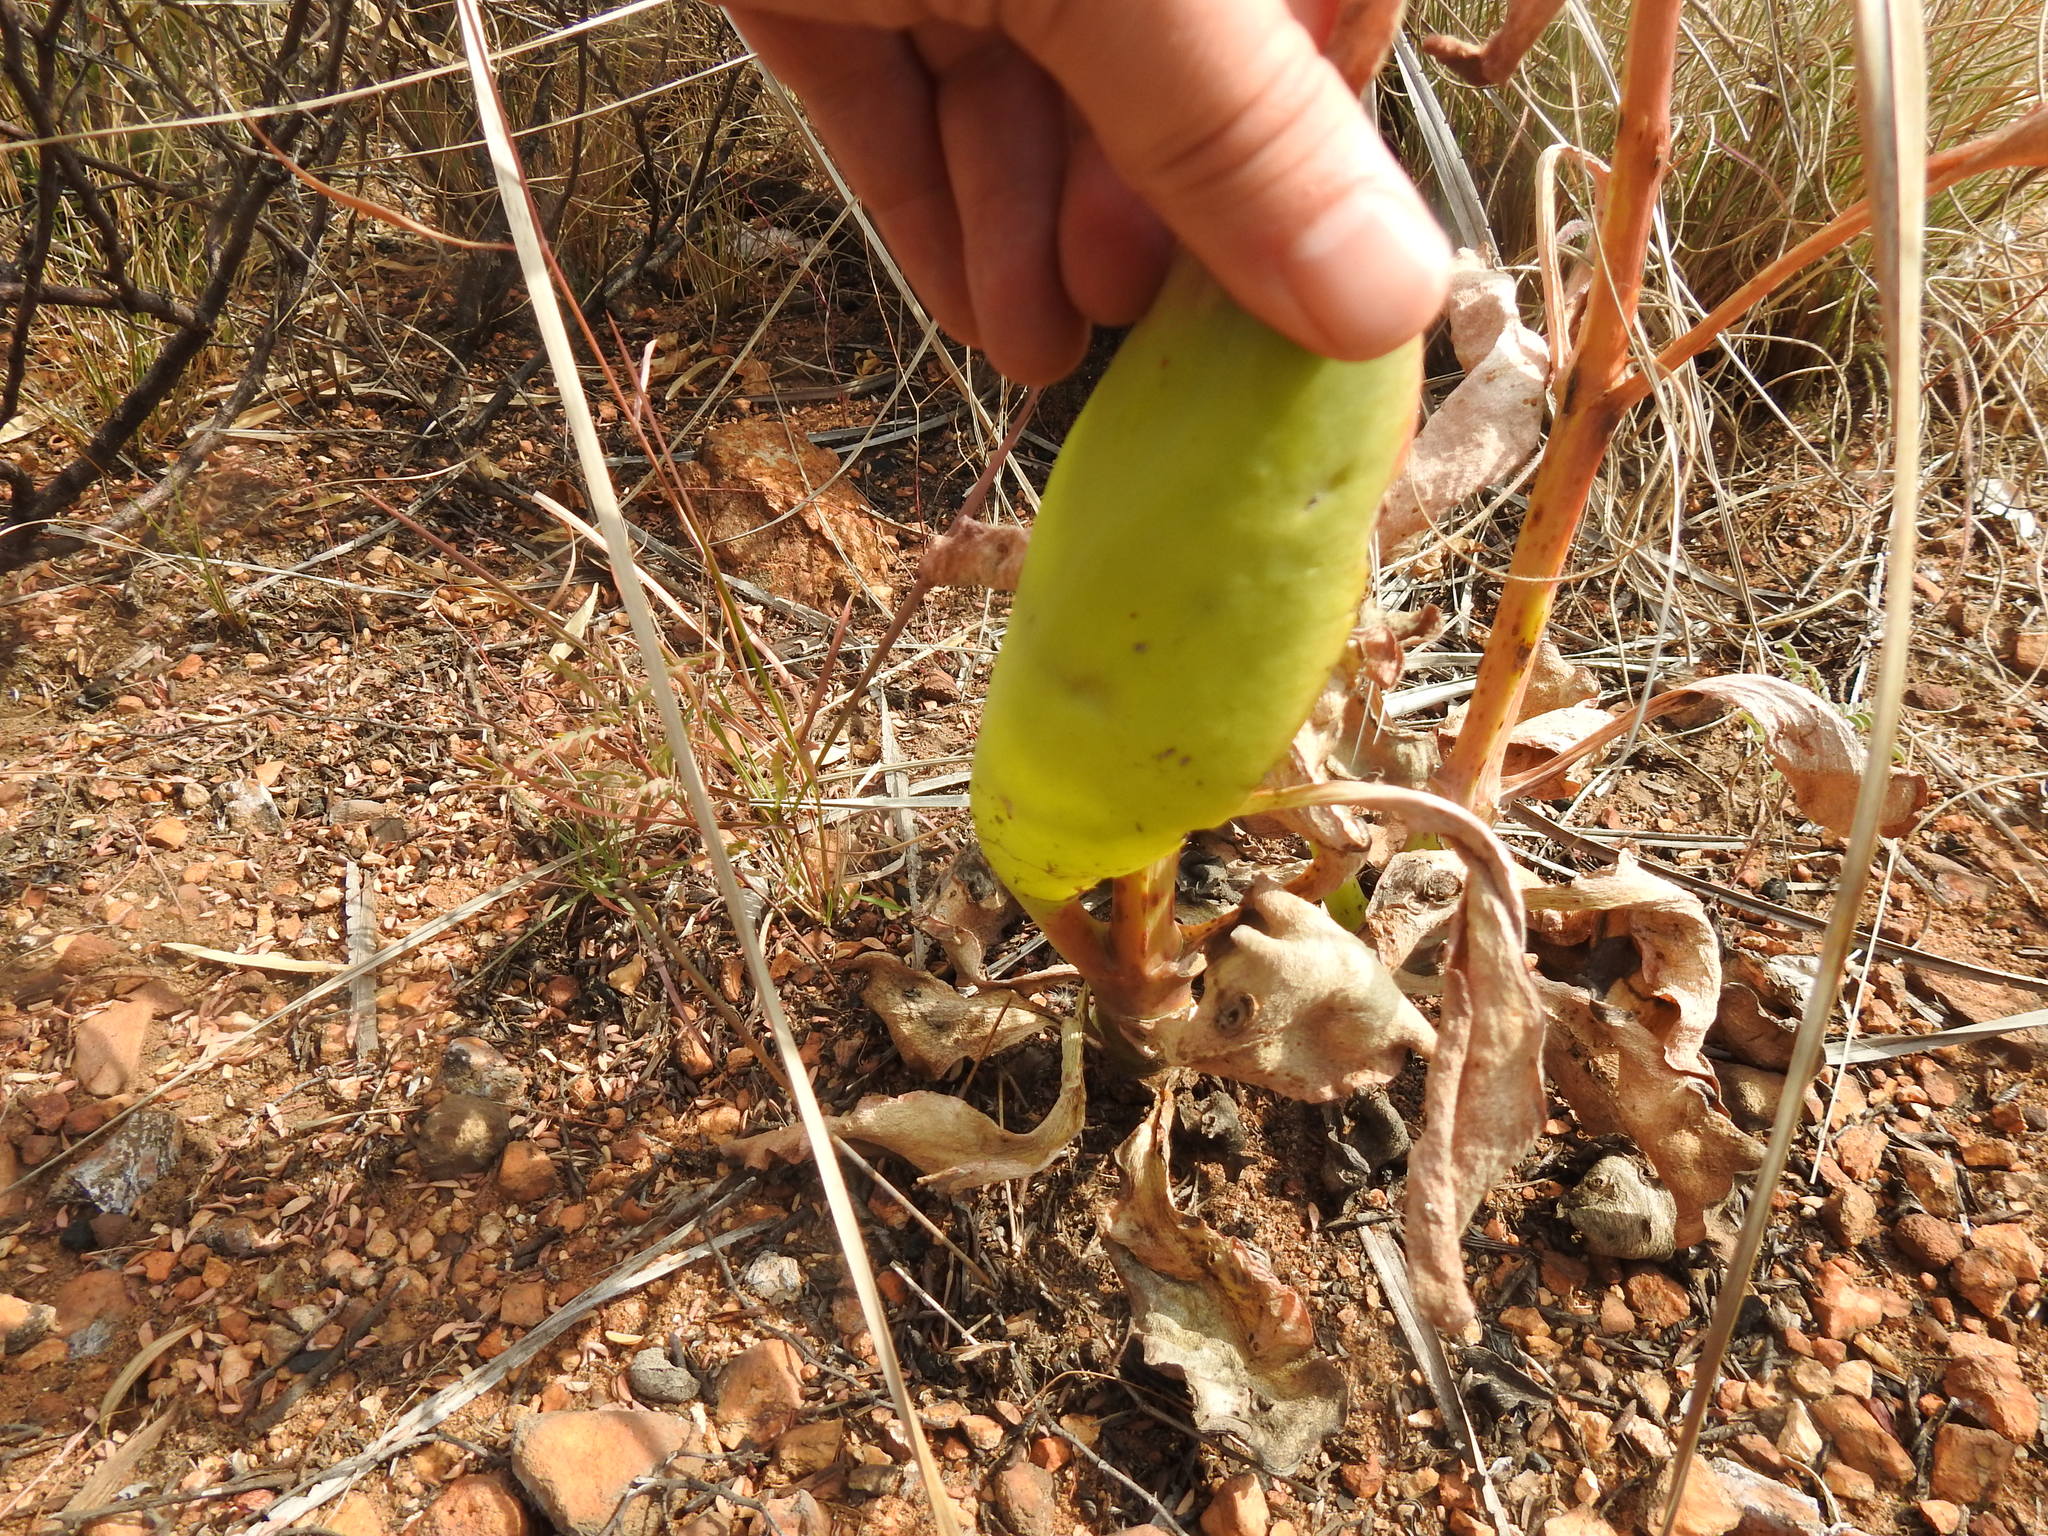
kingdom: Plantae
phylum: Tracheophyta
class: Magnoliopsida
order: Saxifragales
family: Crassulaceae
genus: Kalanchoe
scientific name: Kalanchoe paniculata
